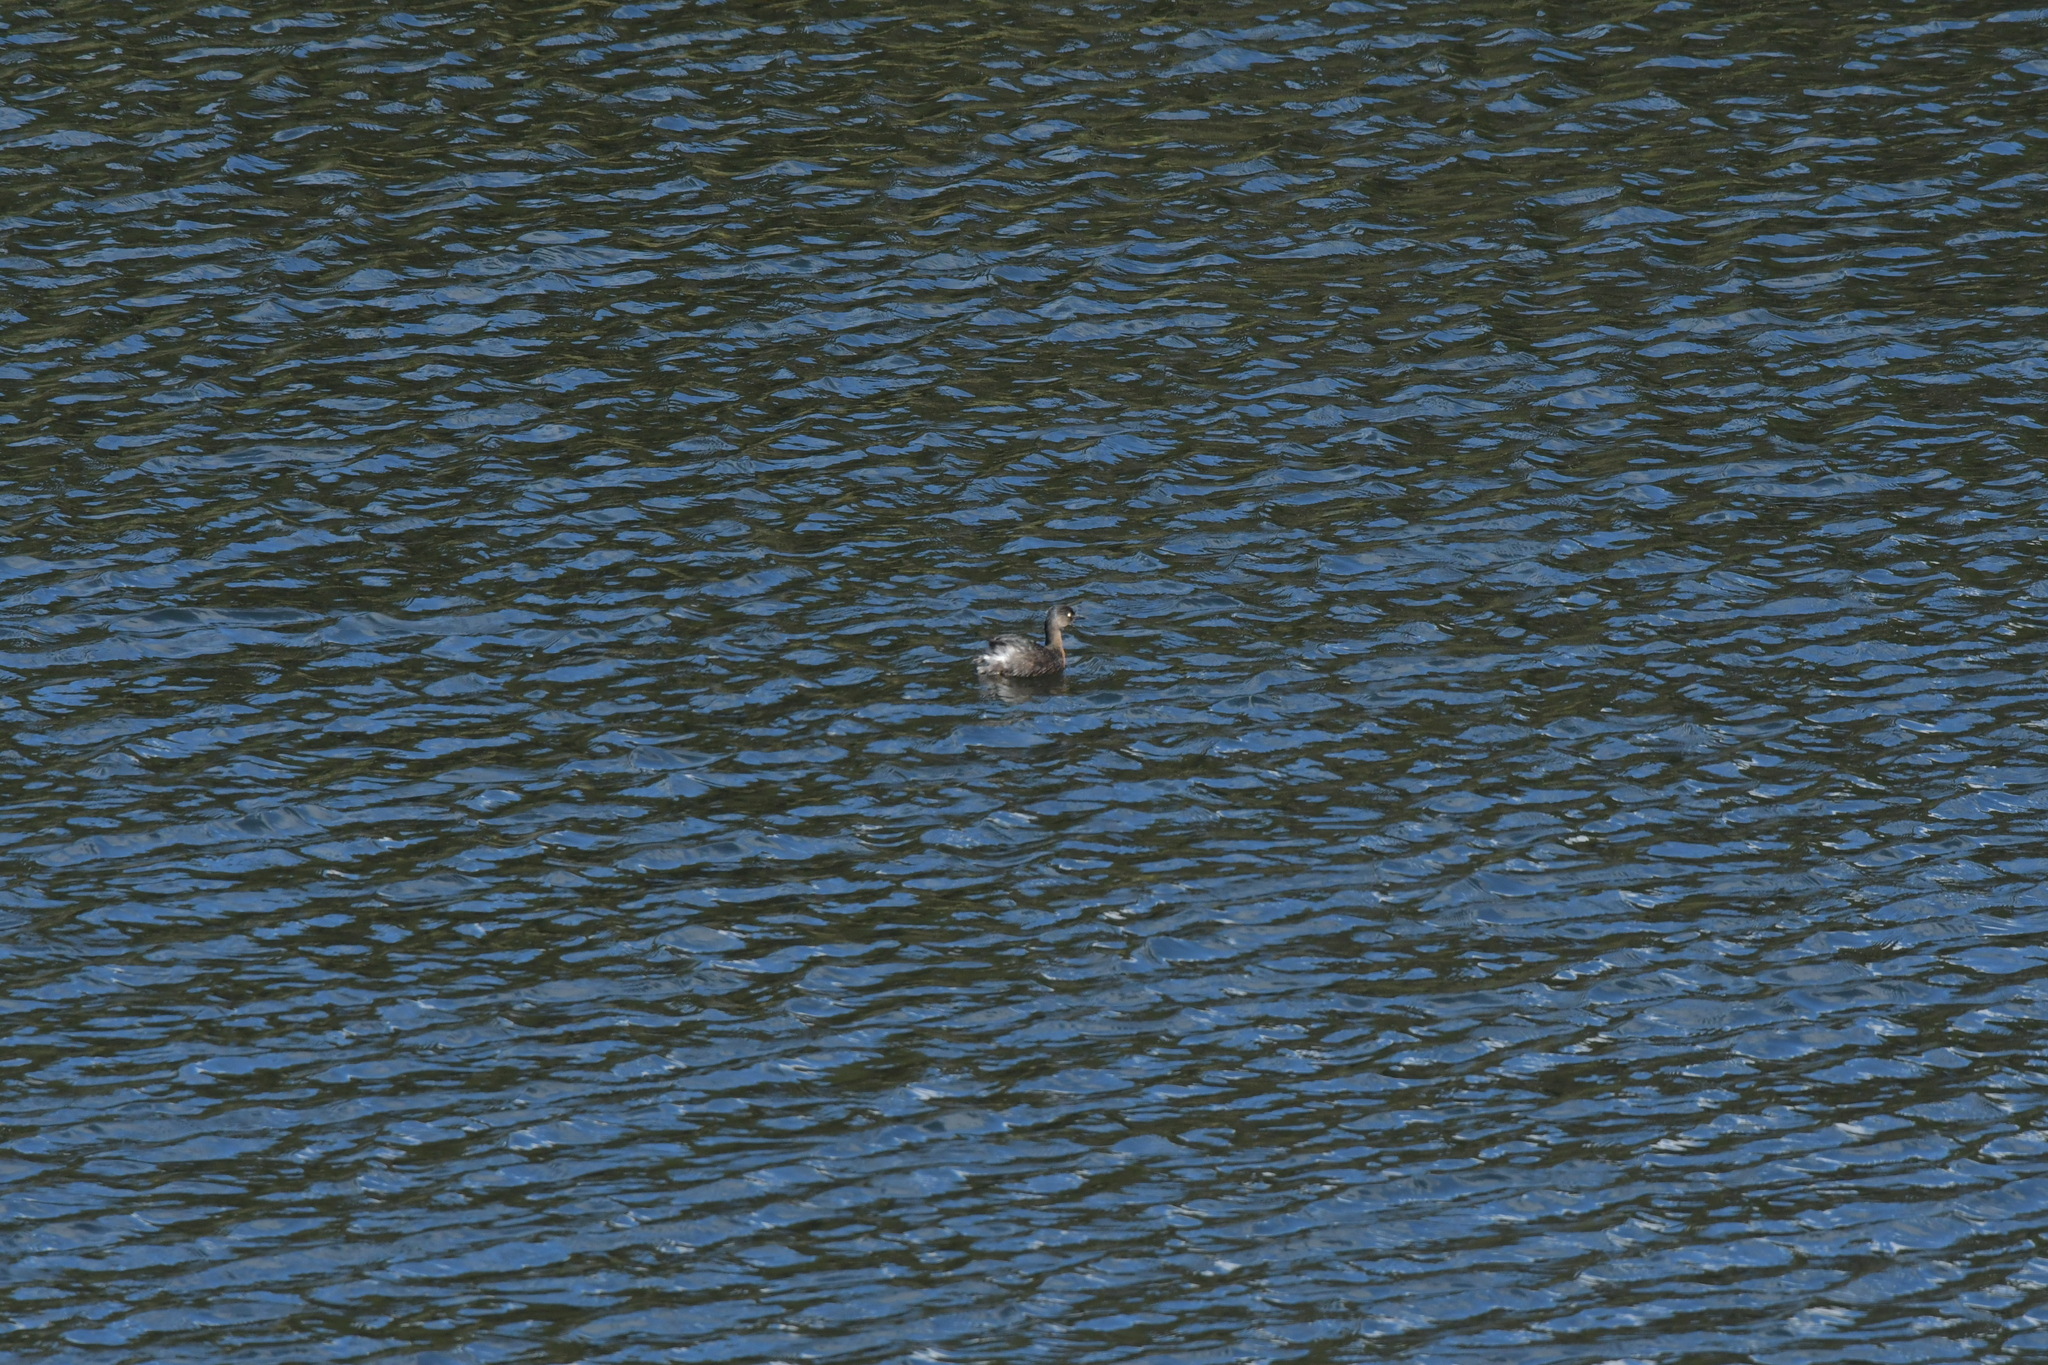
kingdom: Animalia
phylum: Chordata
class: Aves
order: Podicipediformes
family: Podicipedidae
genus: Poliocephalus
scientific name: Poliocephalus rufopectus
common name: New zealand grebe
